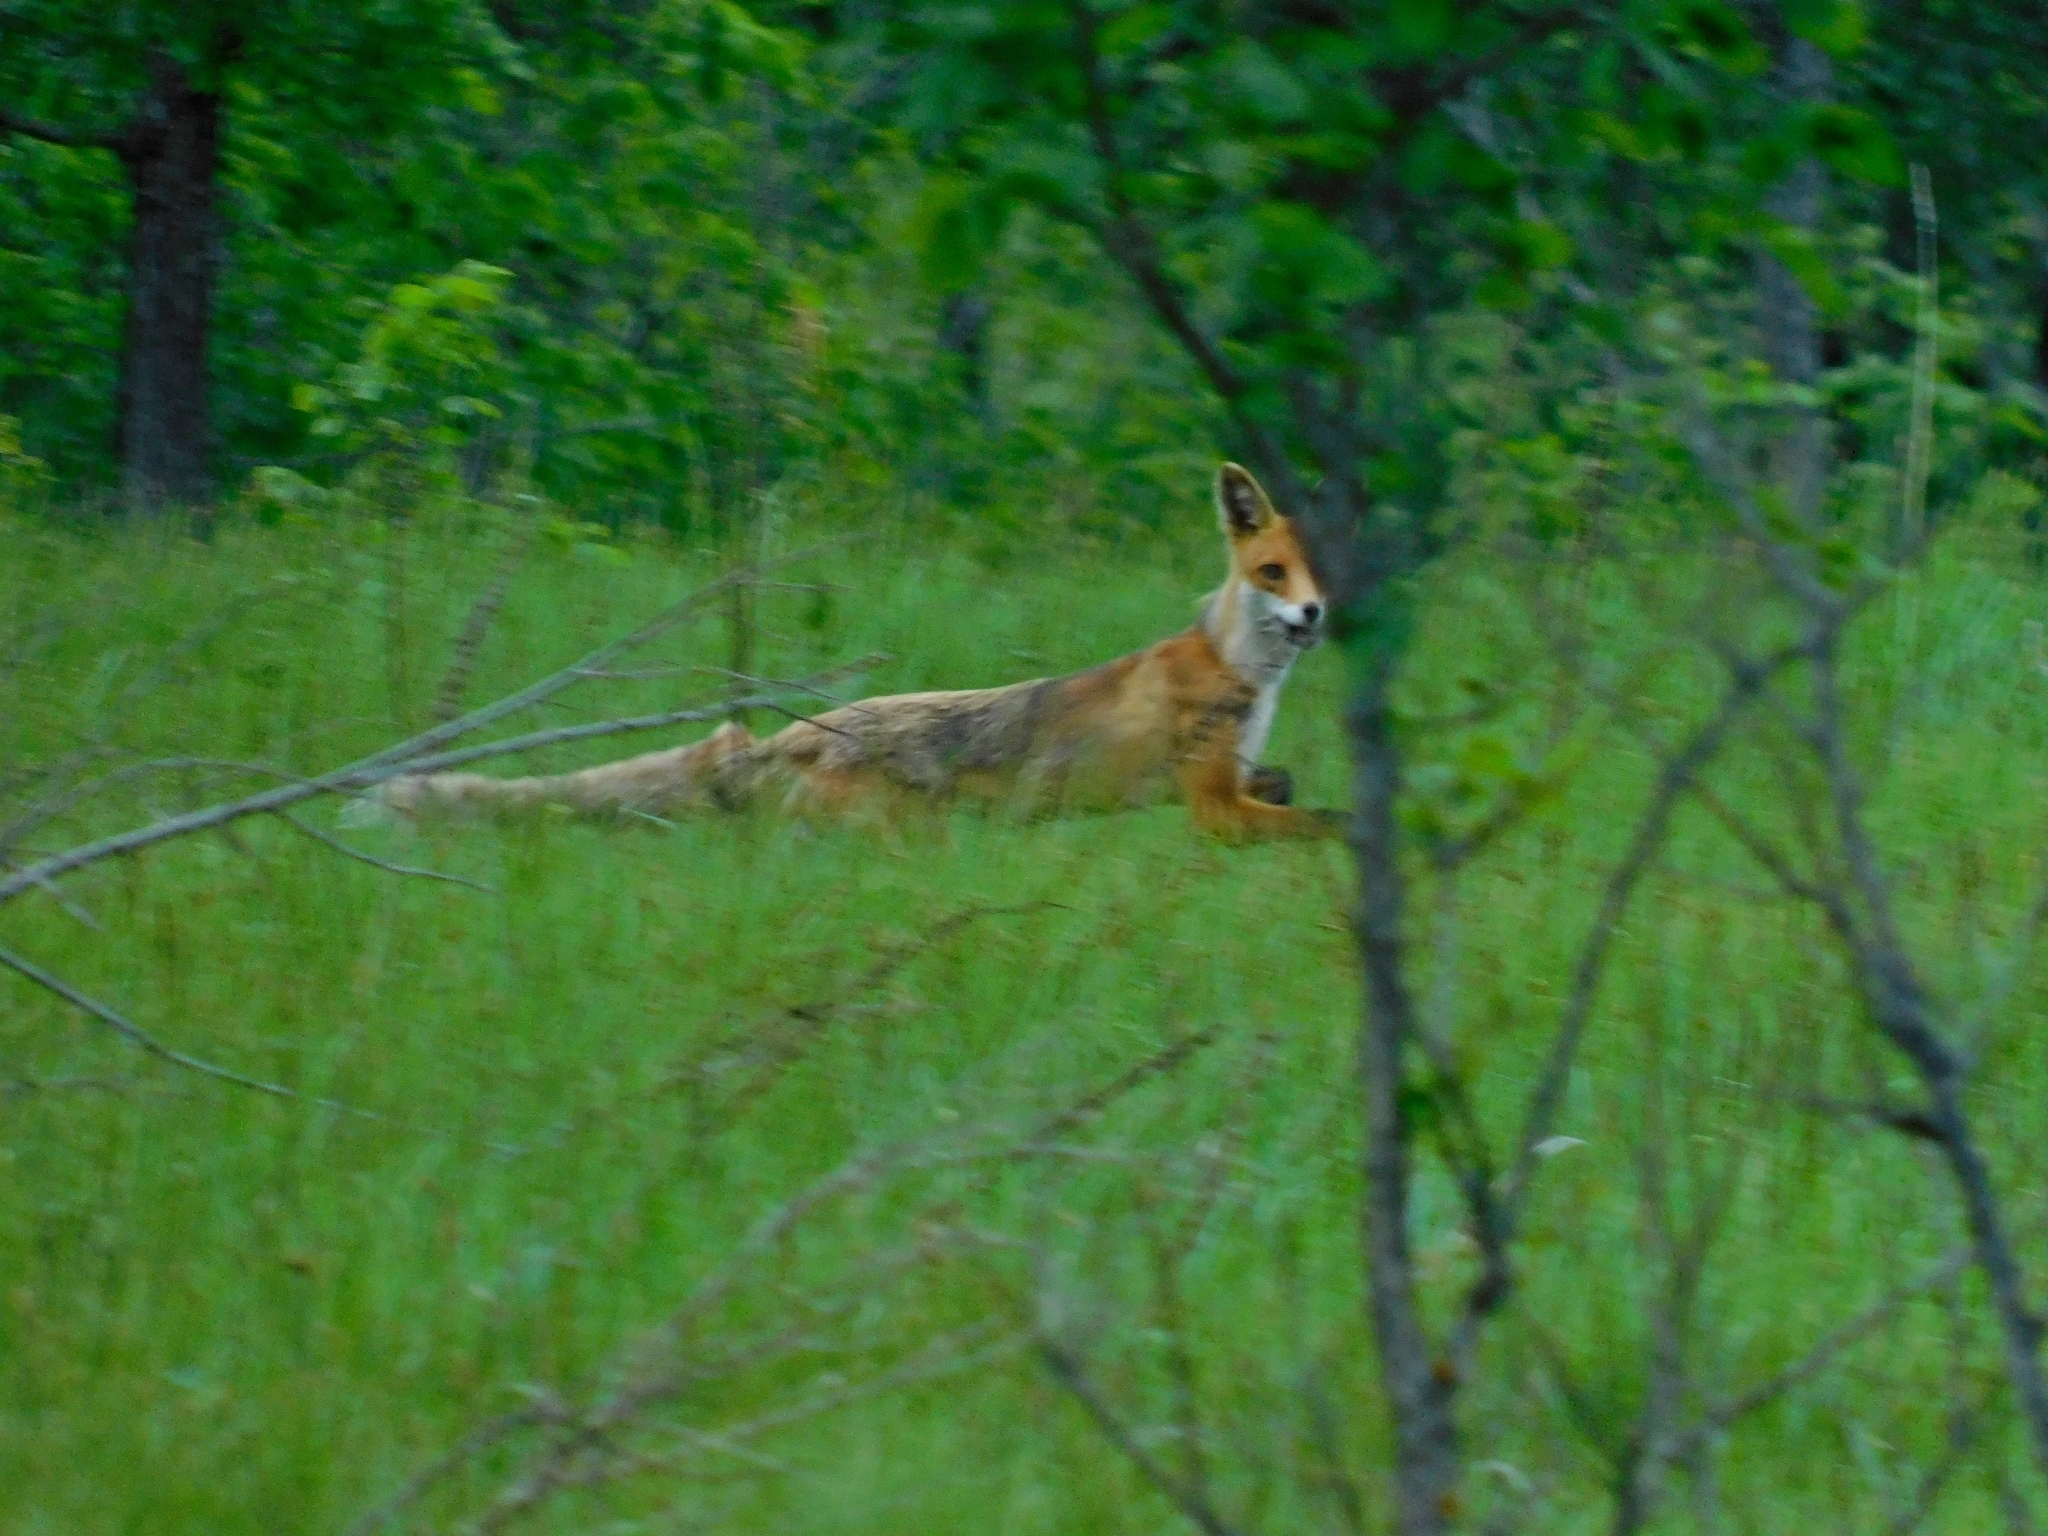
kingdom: Animalia
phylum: Chordata
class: Mammalia
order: Carnivora
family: Canidae
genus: Vulpes
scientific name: Vulpes vulpes
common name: Red fox
